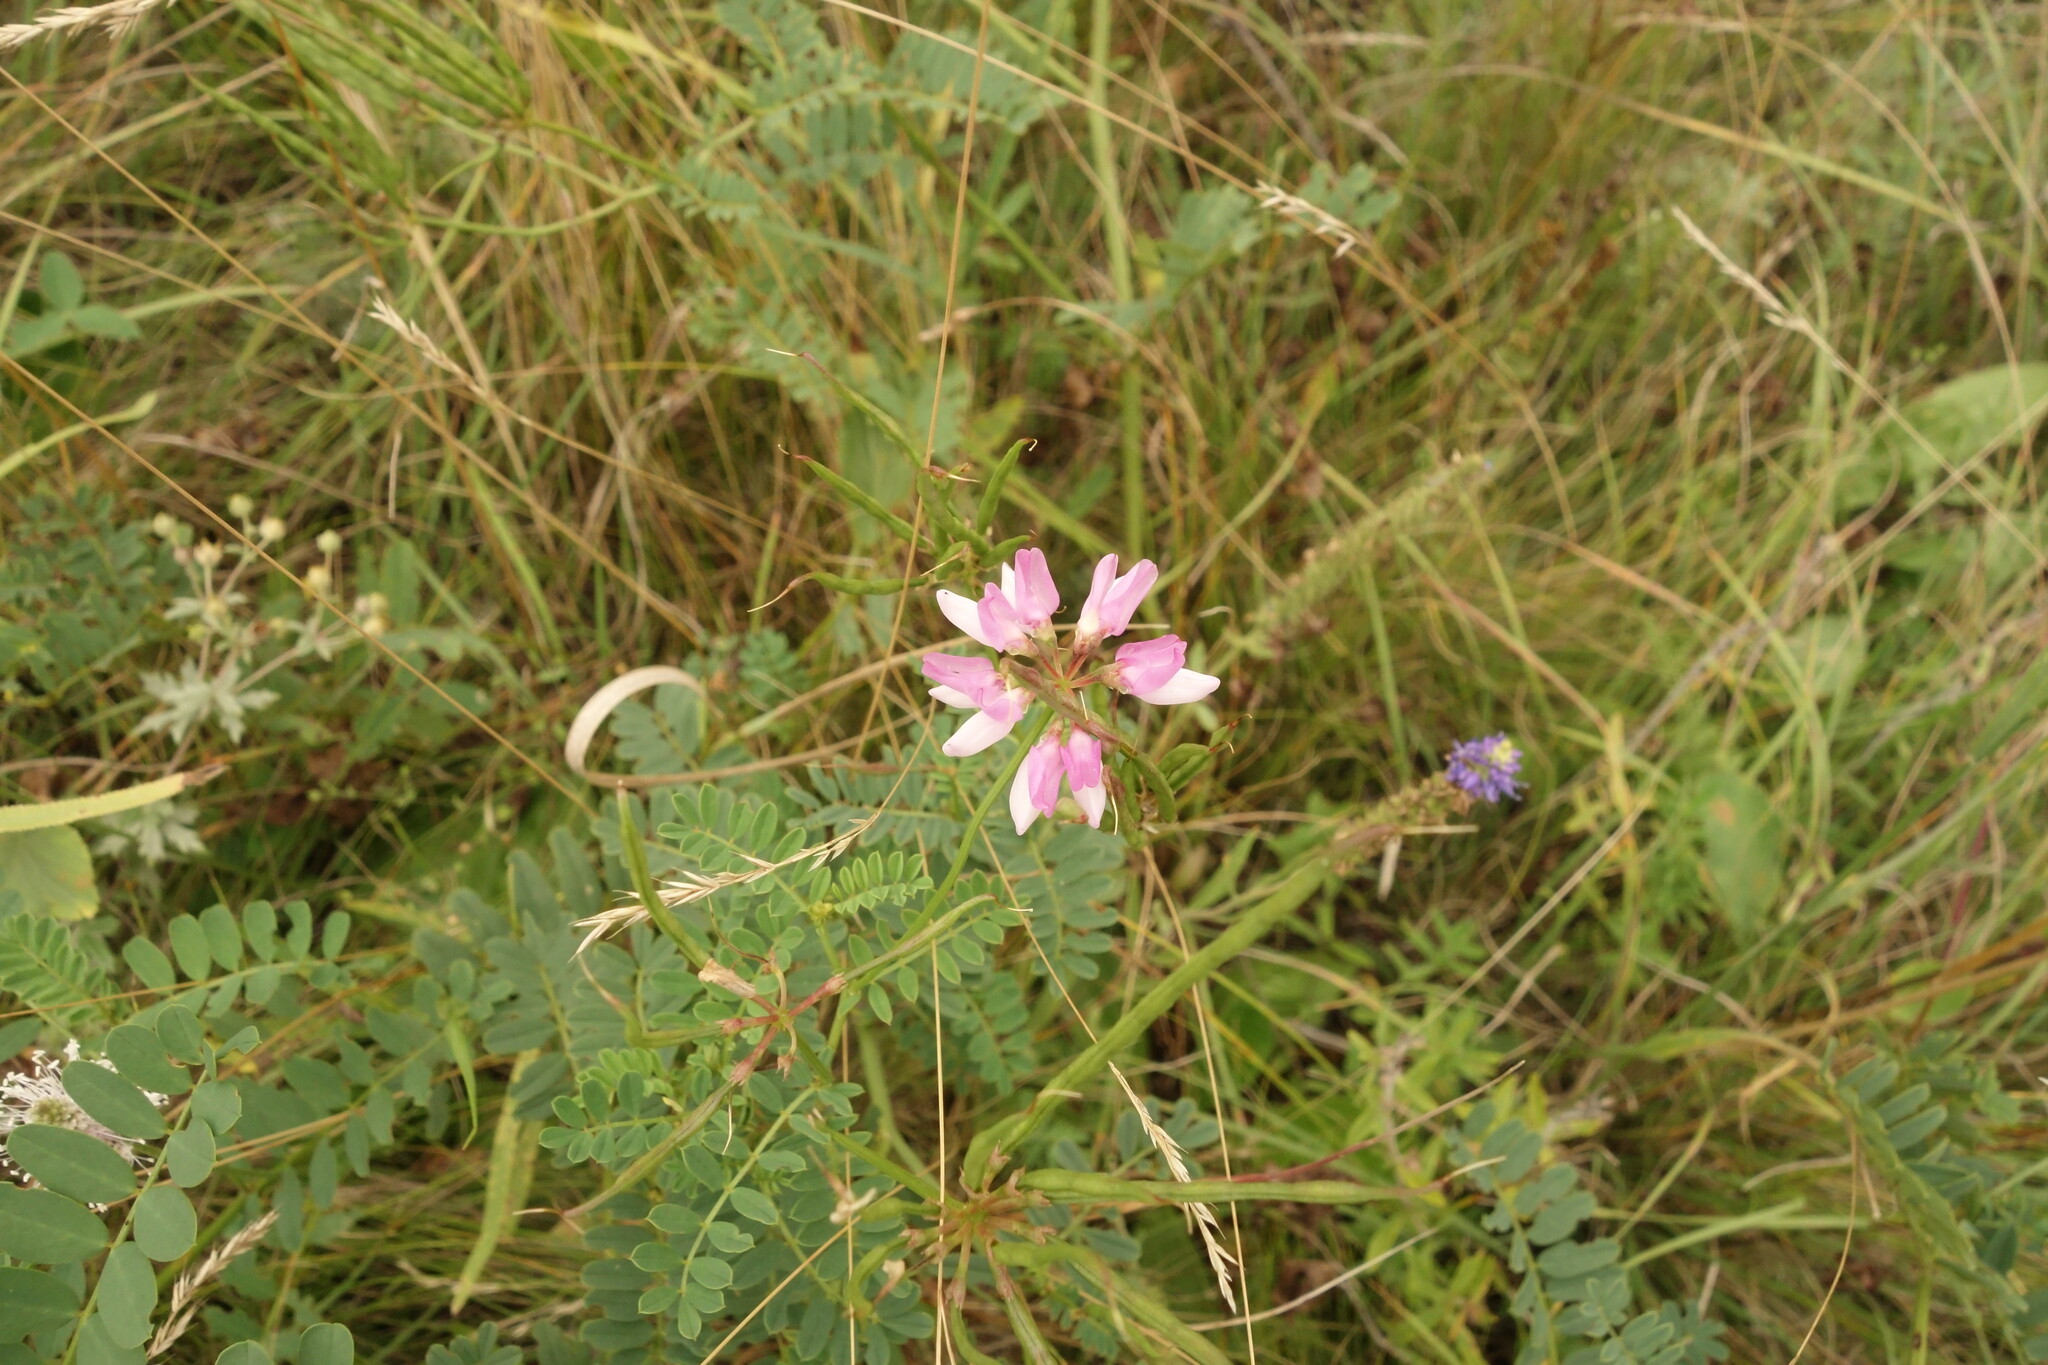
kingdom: Plantae
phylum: Tracheophyta
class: Magnoliopsida
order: Fabales
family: Fabaceae
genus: Coronilla
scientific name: Coronilla varia
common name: Crownvetch
